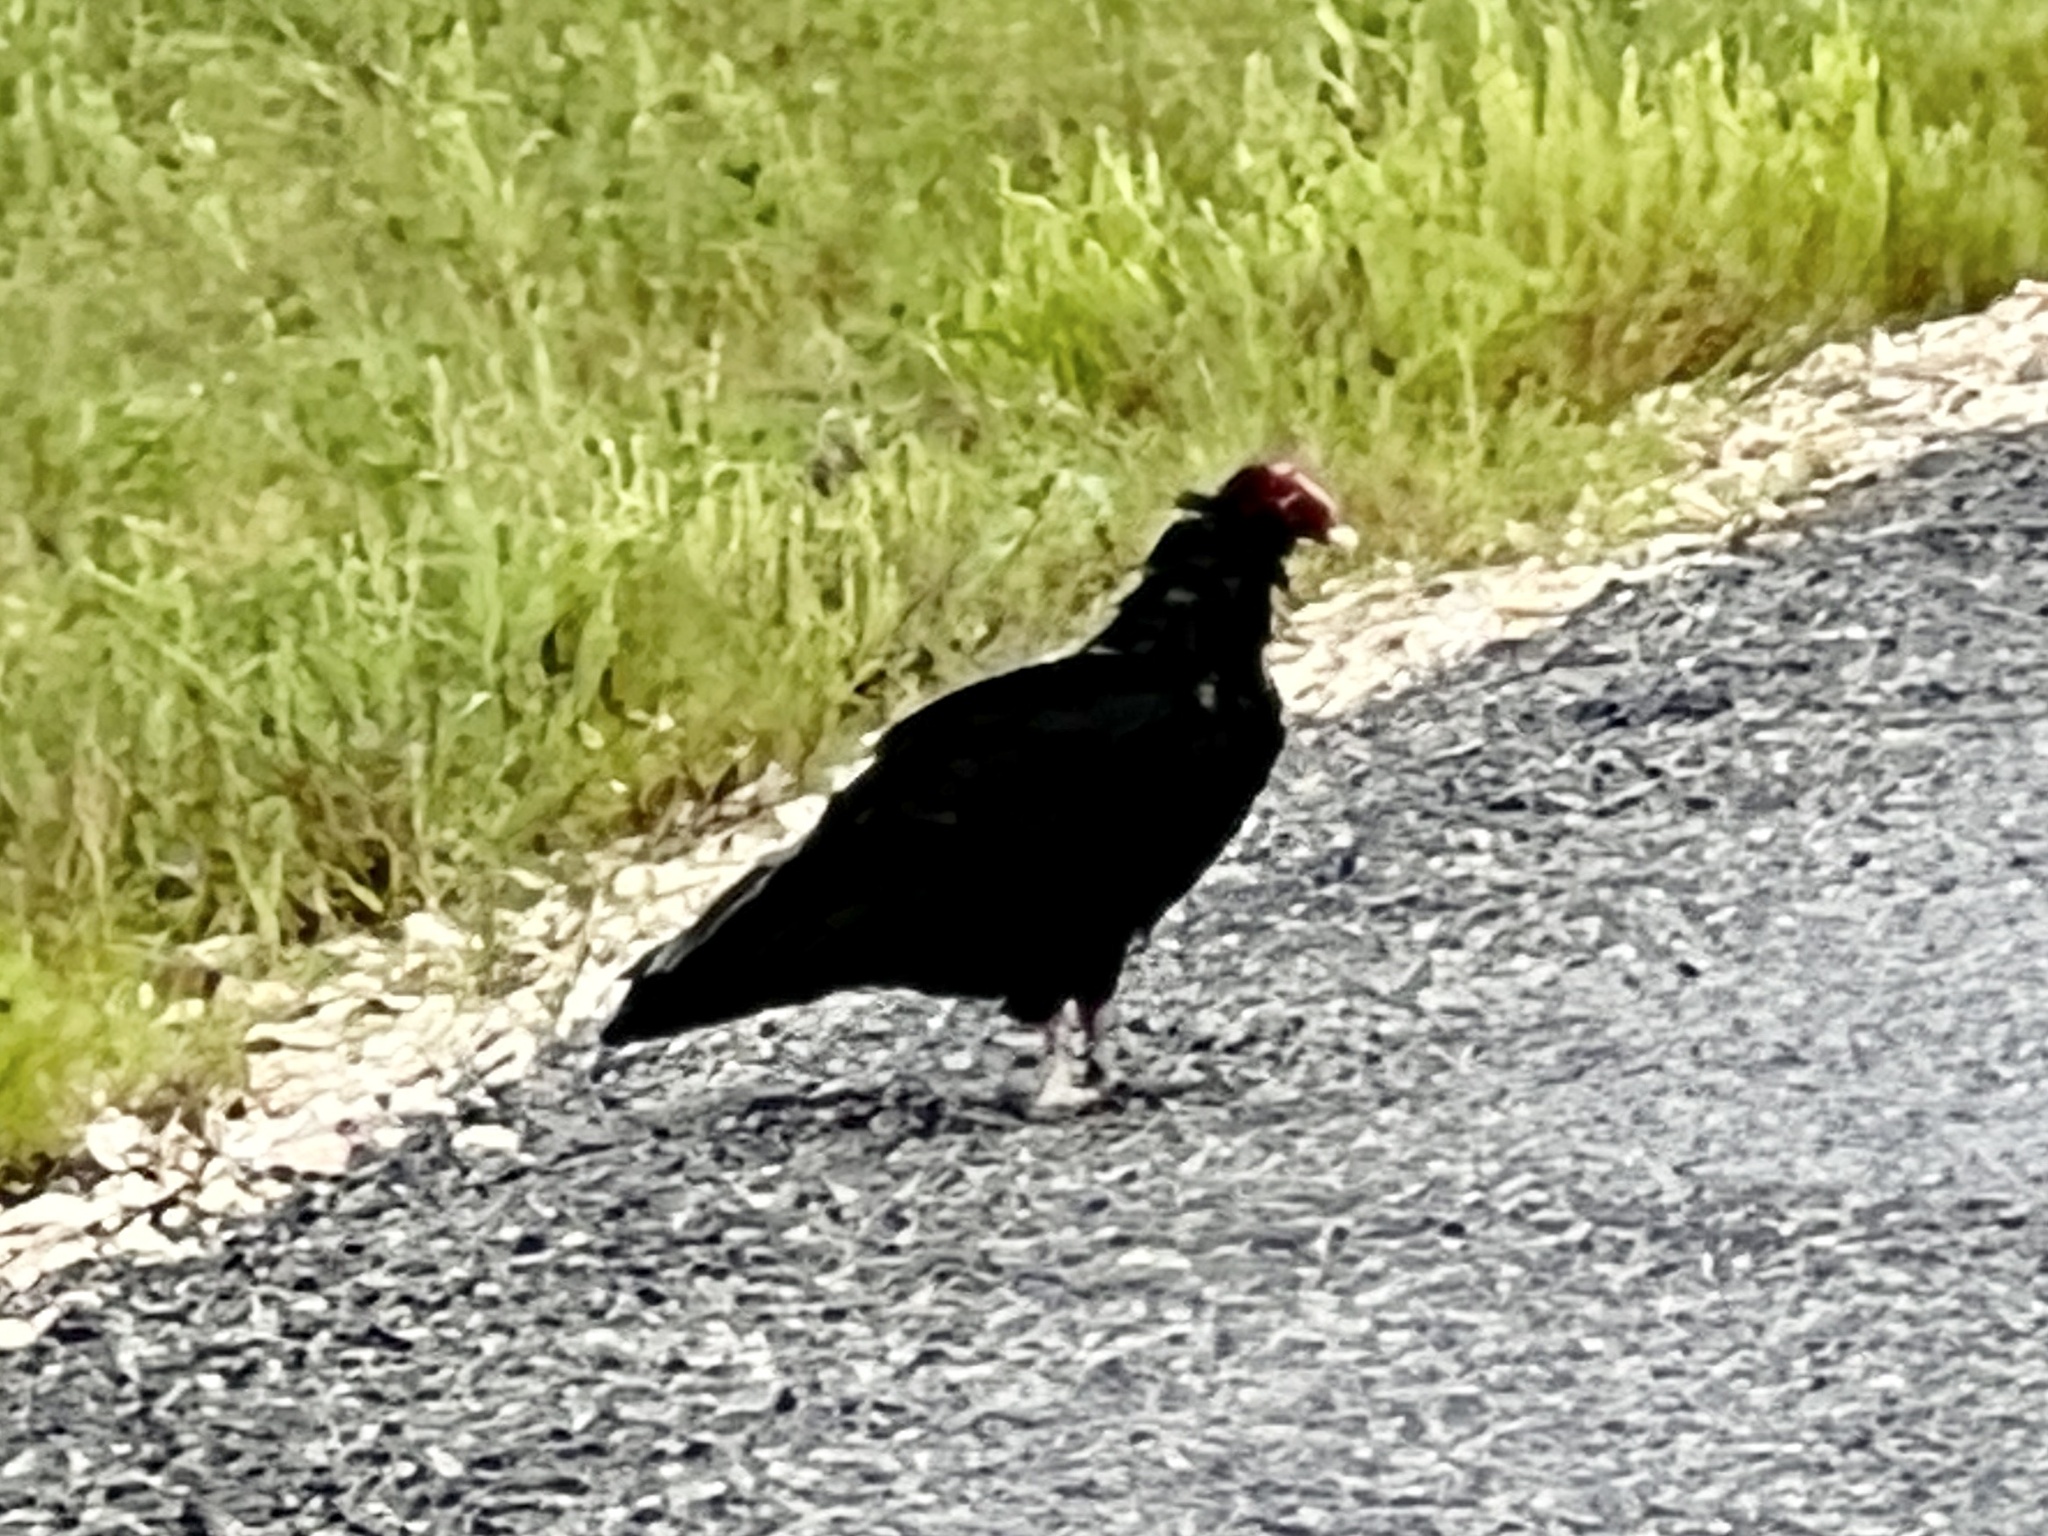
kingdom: Animalia
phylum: Chordata
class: Aves
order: Accipitriformes
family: Cathartidae
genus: Cathartes
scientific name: Cathartes aura
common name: Turkey vulture
